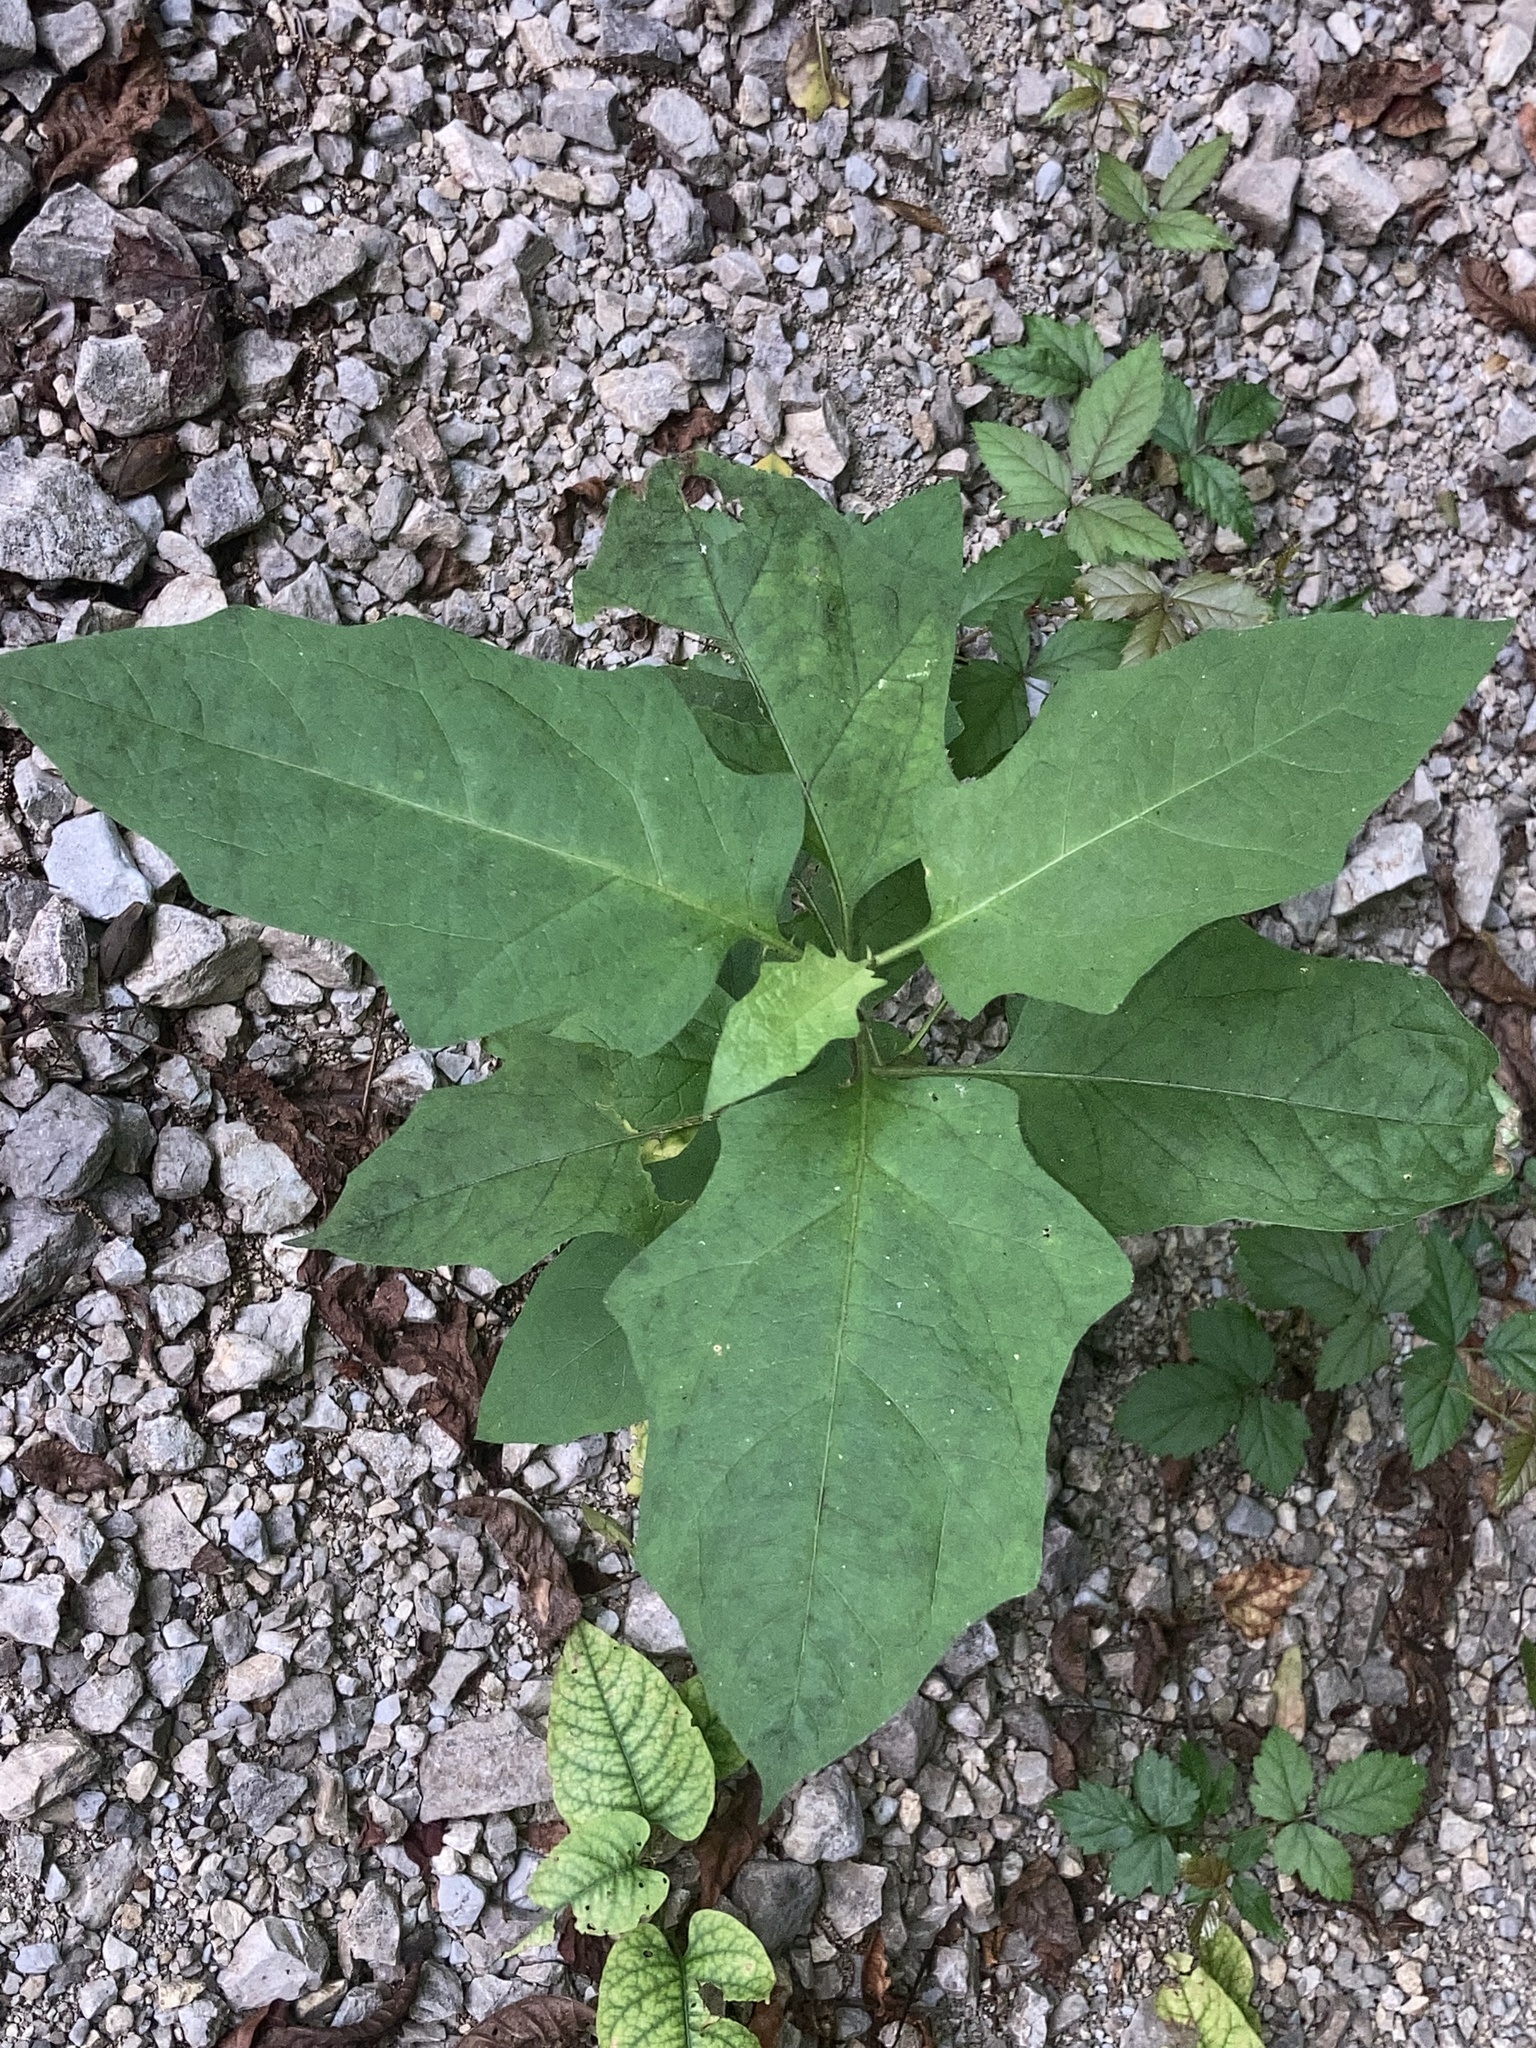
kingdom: Plantae
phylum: Tracheophyta
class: Magnoliopsida
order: Solanales
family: Solanaceae
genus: Solanum
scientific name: Solanum carolinense
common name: Horse-nettle
